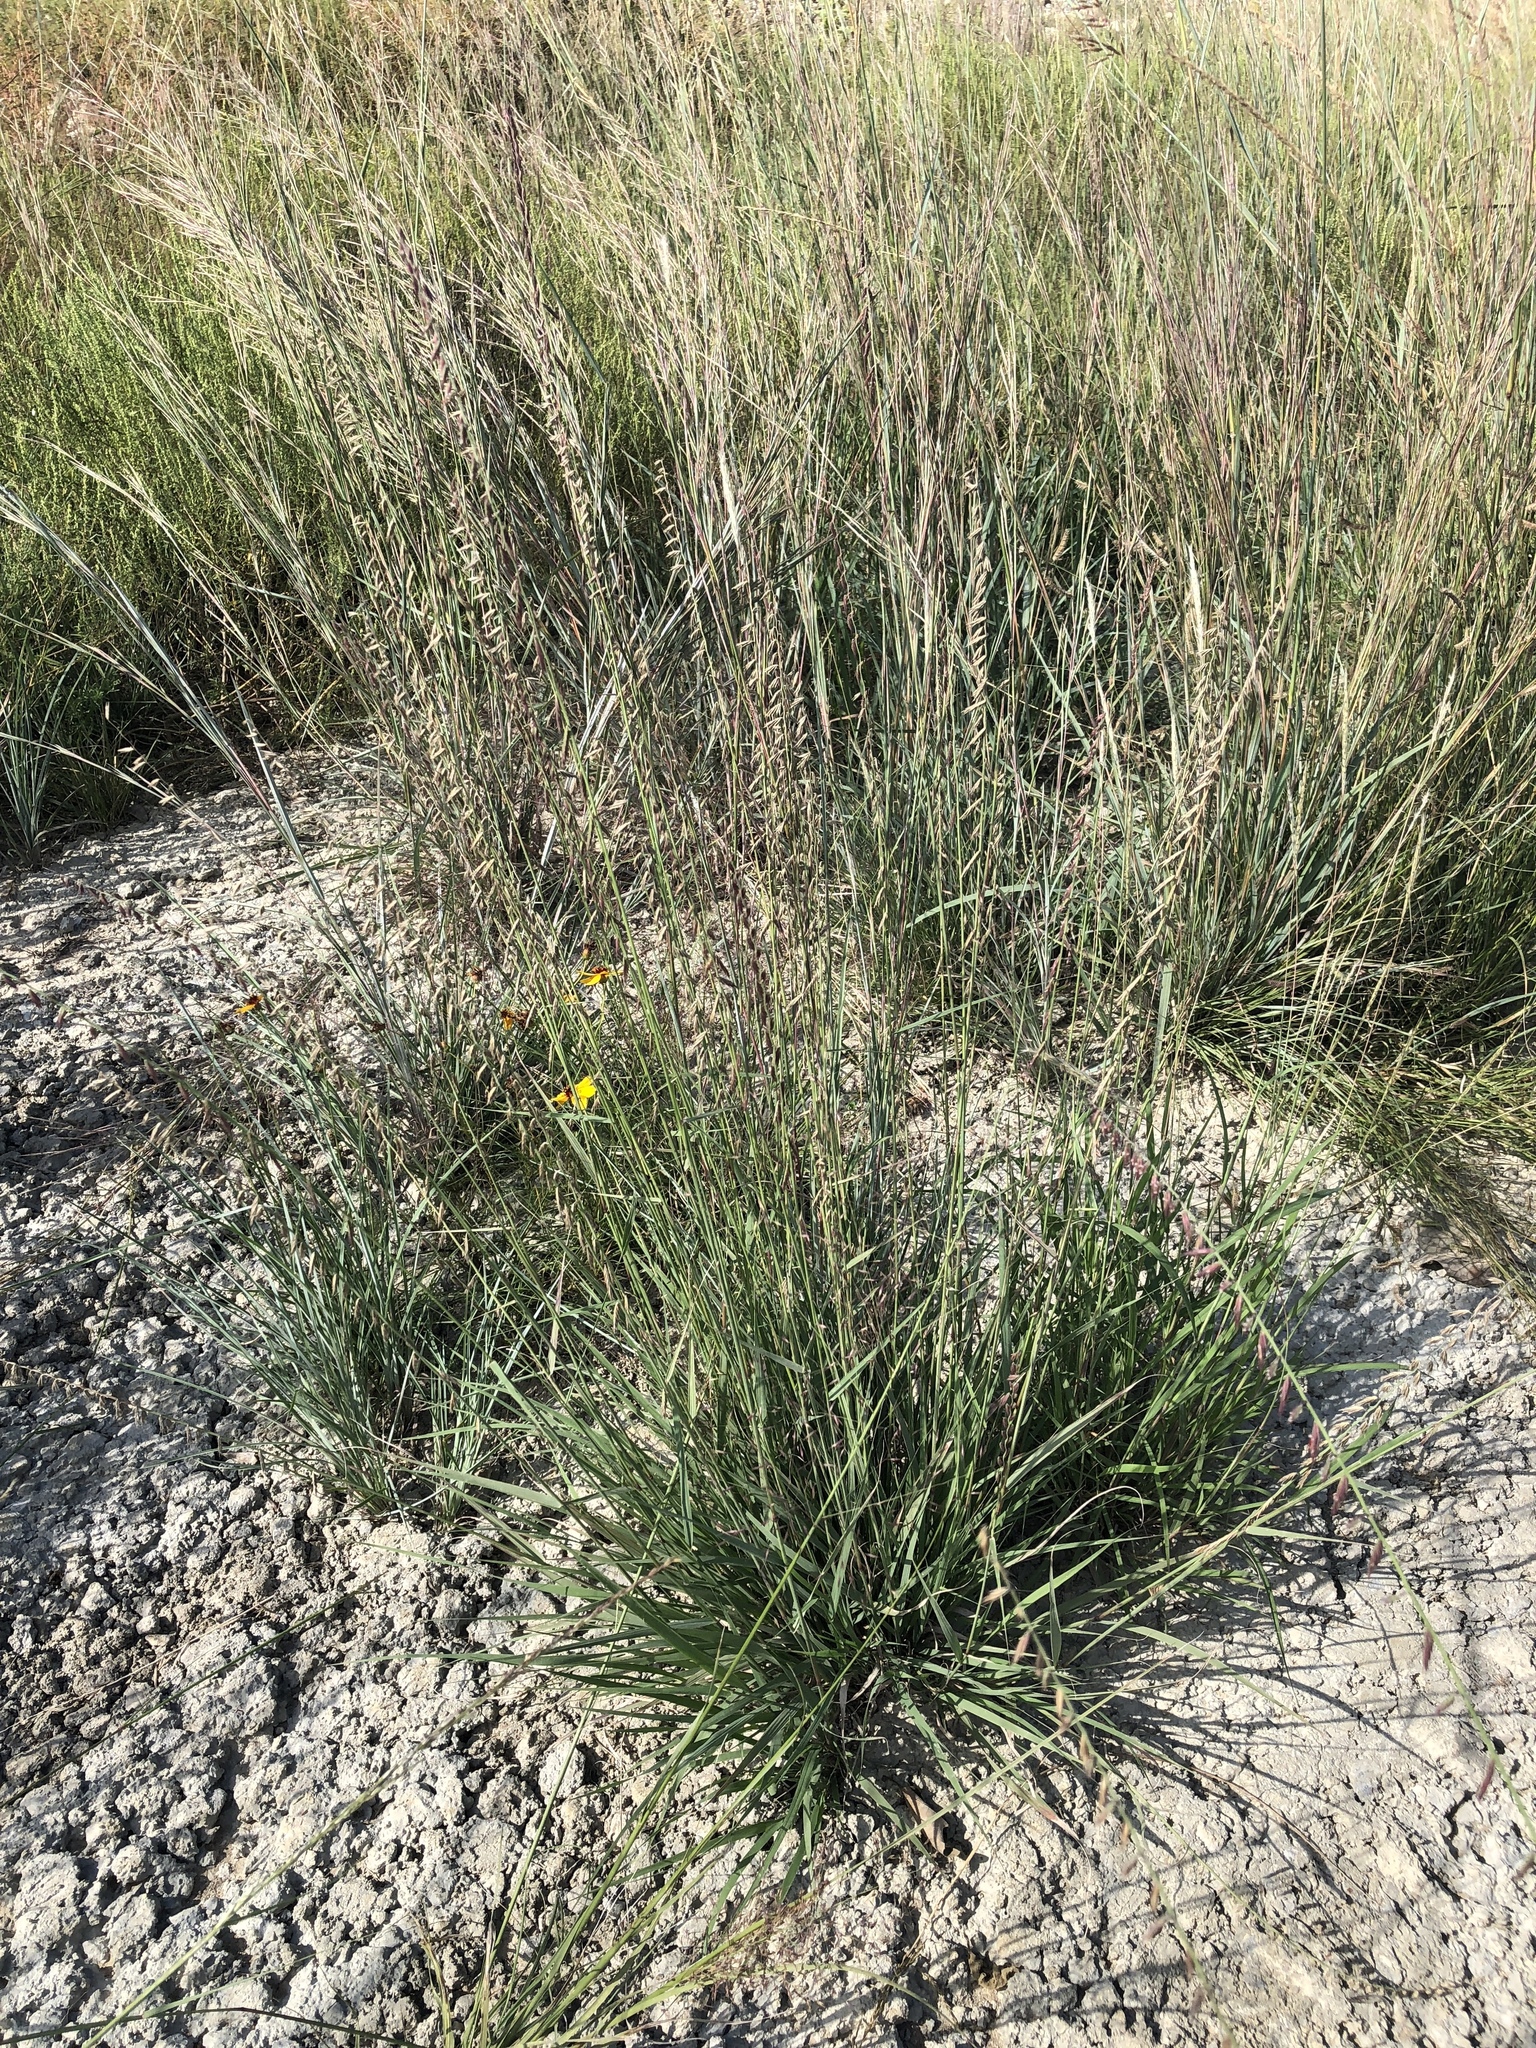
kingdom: Plantae
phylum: Tracheophyta
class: Liliopsida
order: Poales
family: Poaceae
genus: Bouteloua
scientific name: Bouteloua curtipendula
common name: Side-oats grama
